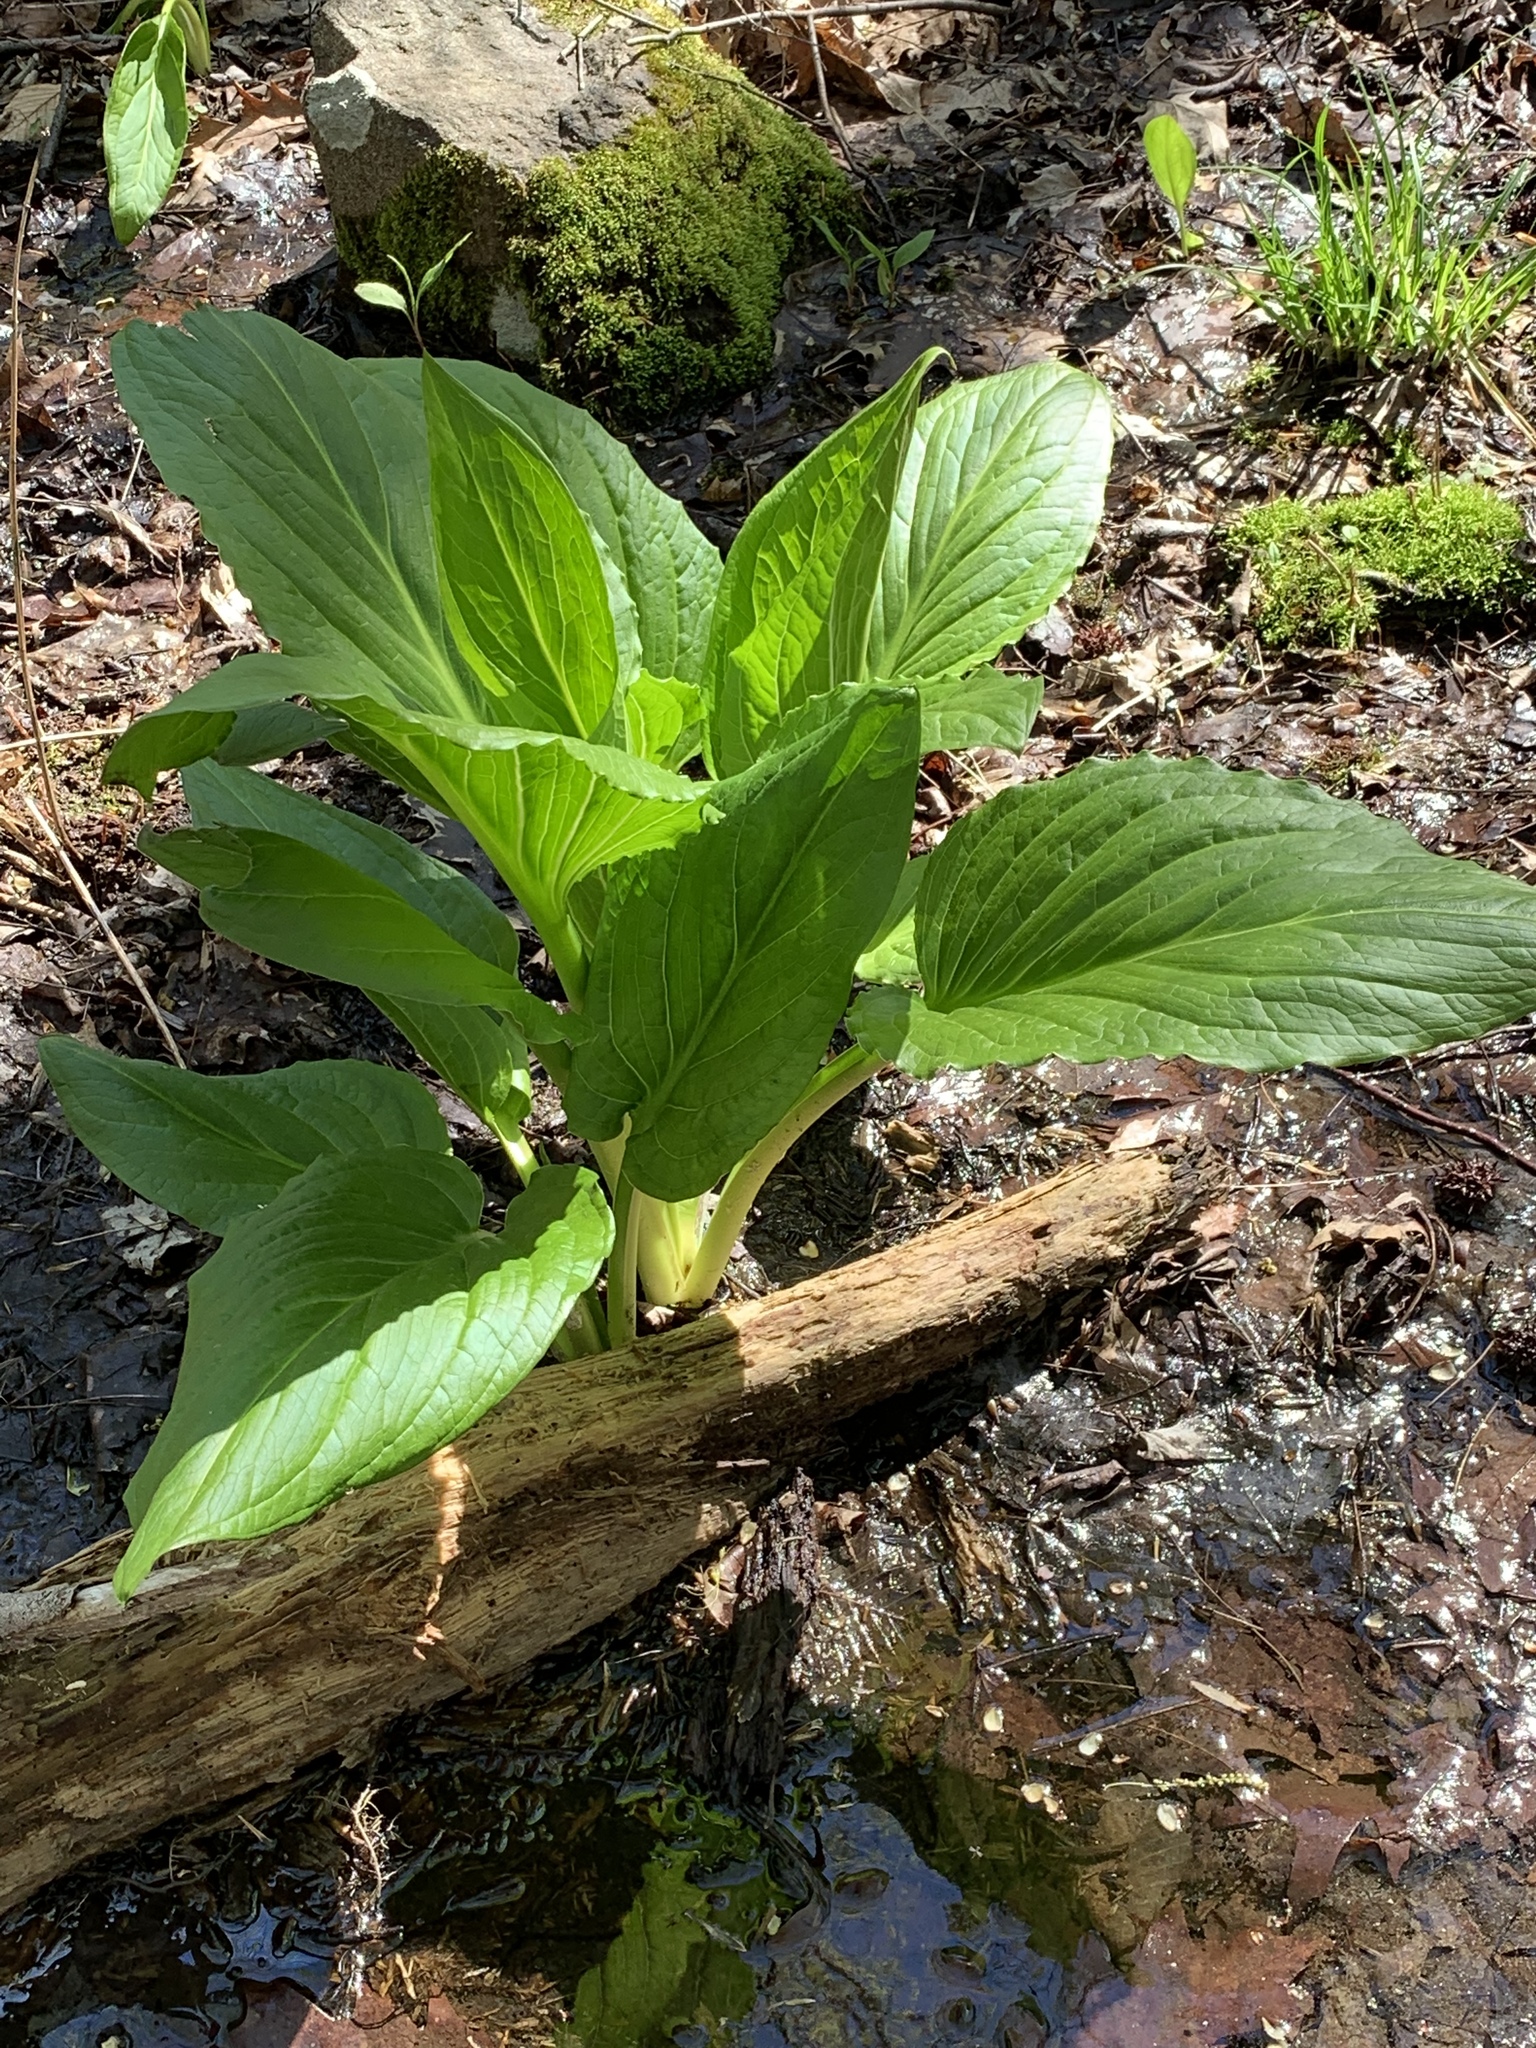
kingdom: Plantae
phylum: Tracheophyta
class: Liliopsida
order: Alismatales
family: Araceae
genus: Symplocarpus
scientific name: Symplocarpus foetidus
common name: Eastern skunk cabbage
